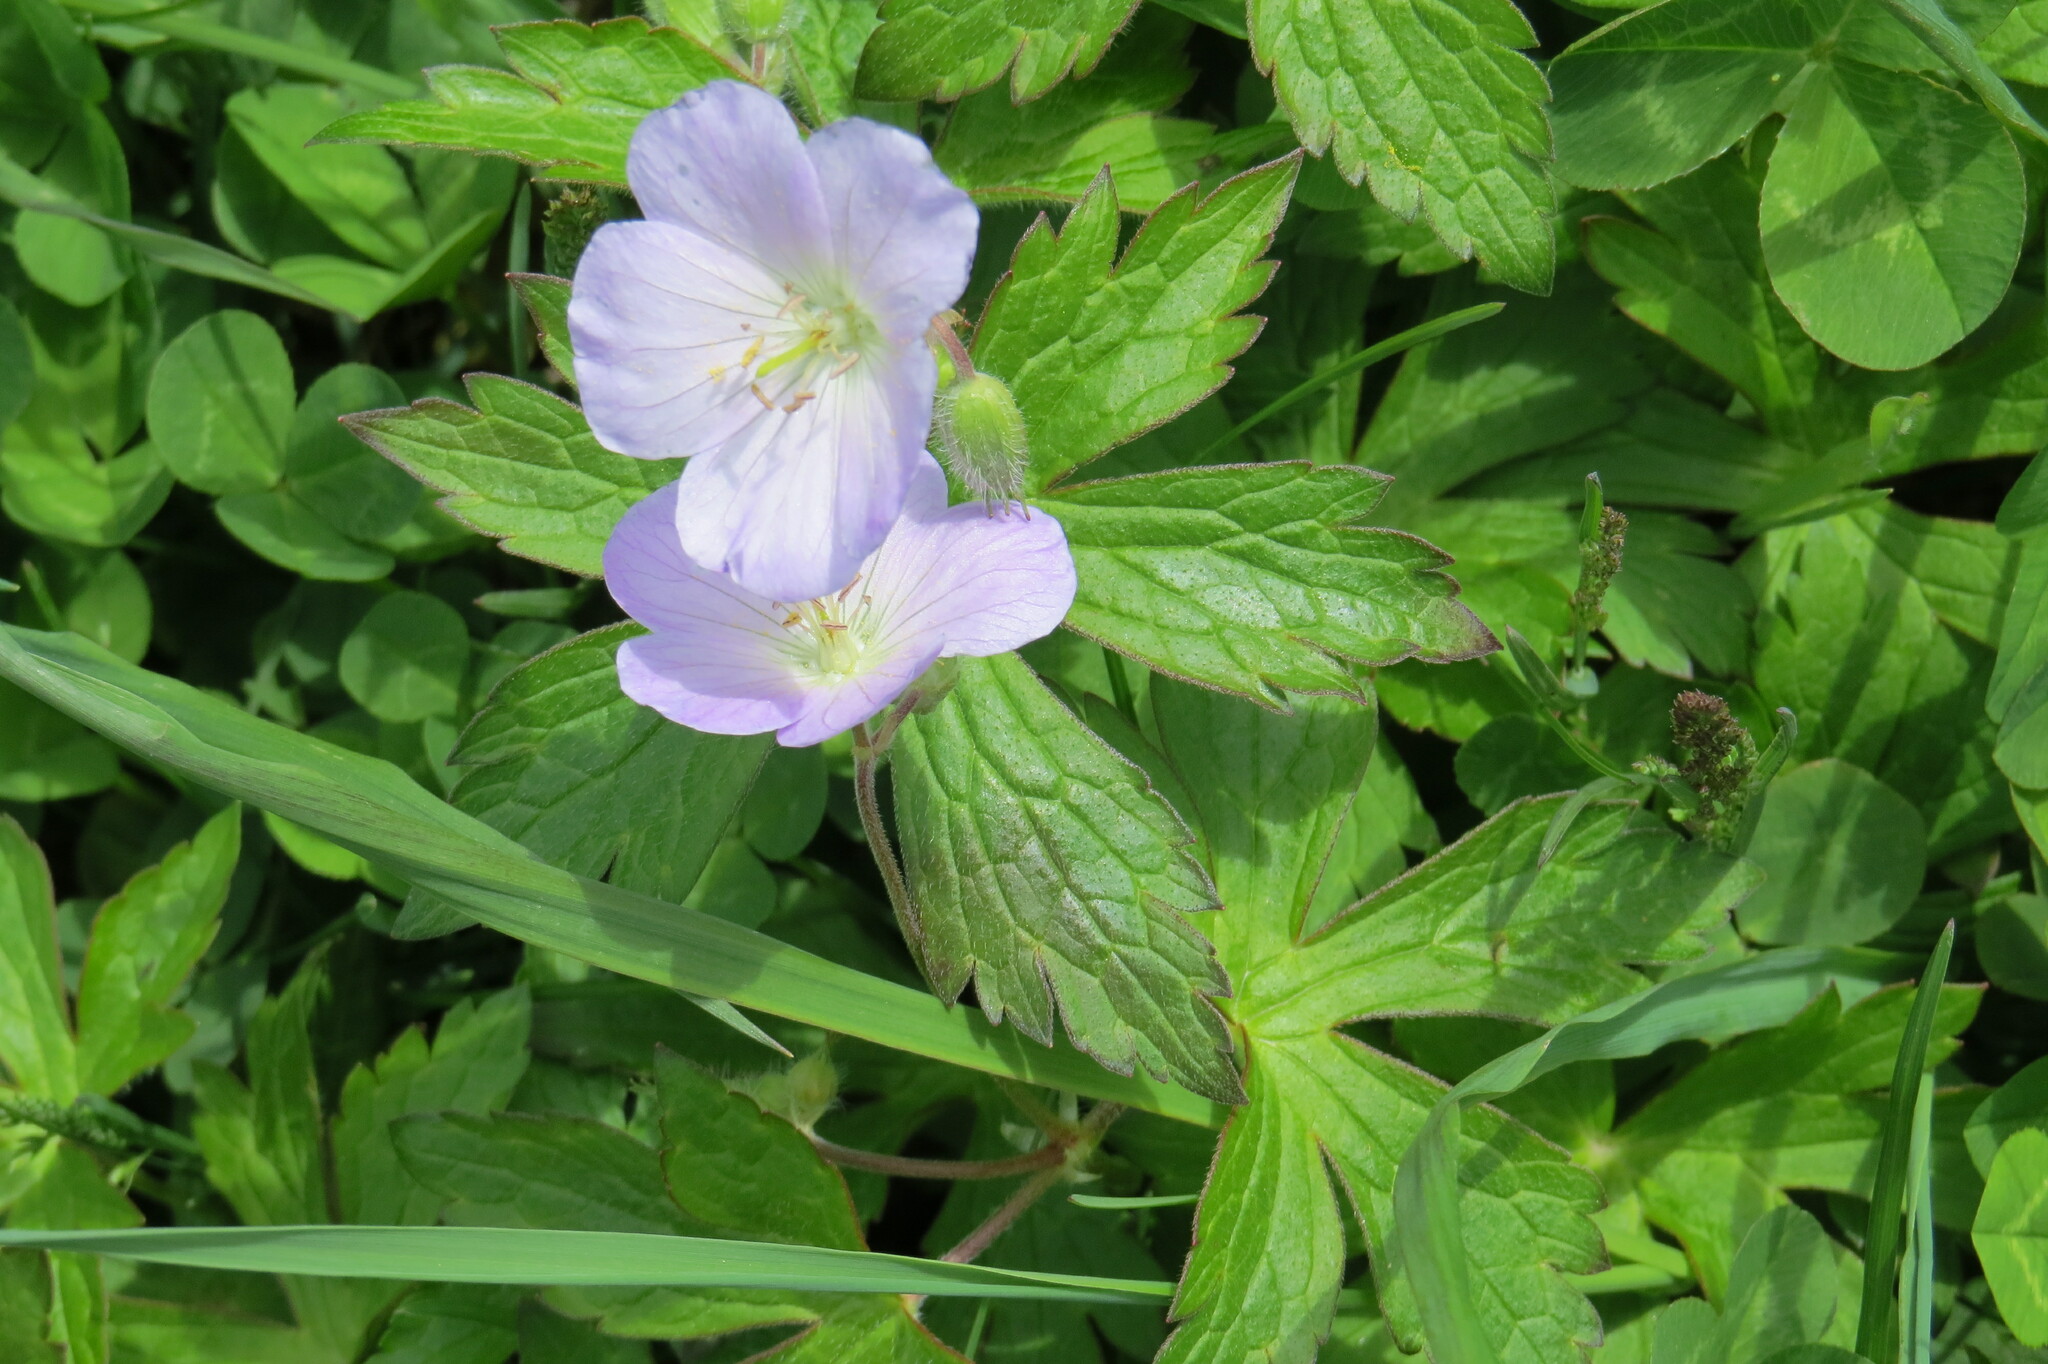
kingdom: Plantae
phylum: Tracheophyta
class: Magnoliopsida
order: Geraniales
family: Geraniaceae
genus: Geranium
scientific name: Geranium maculatum
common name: Spotted geranium
